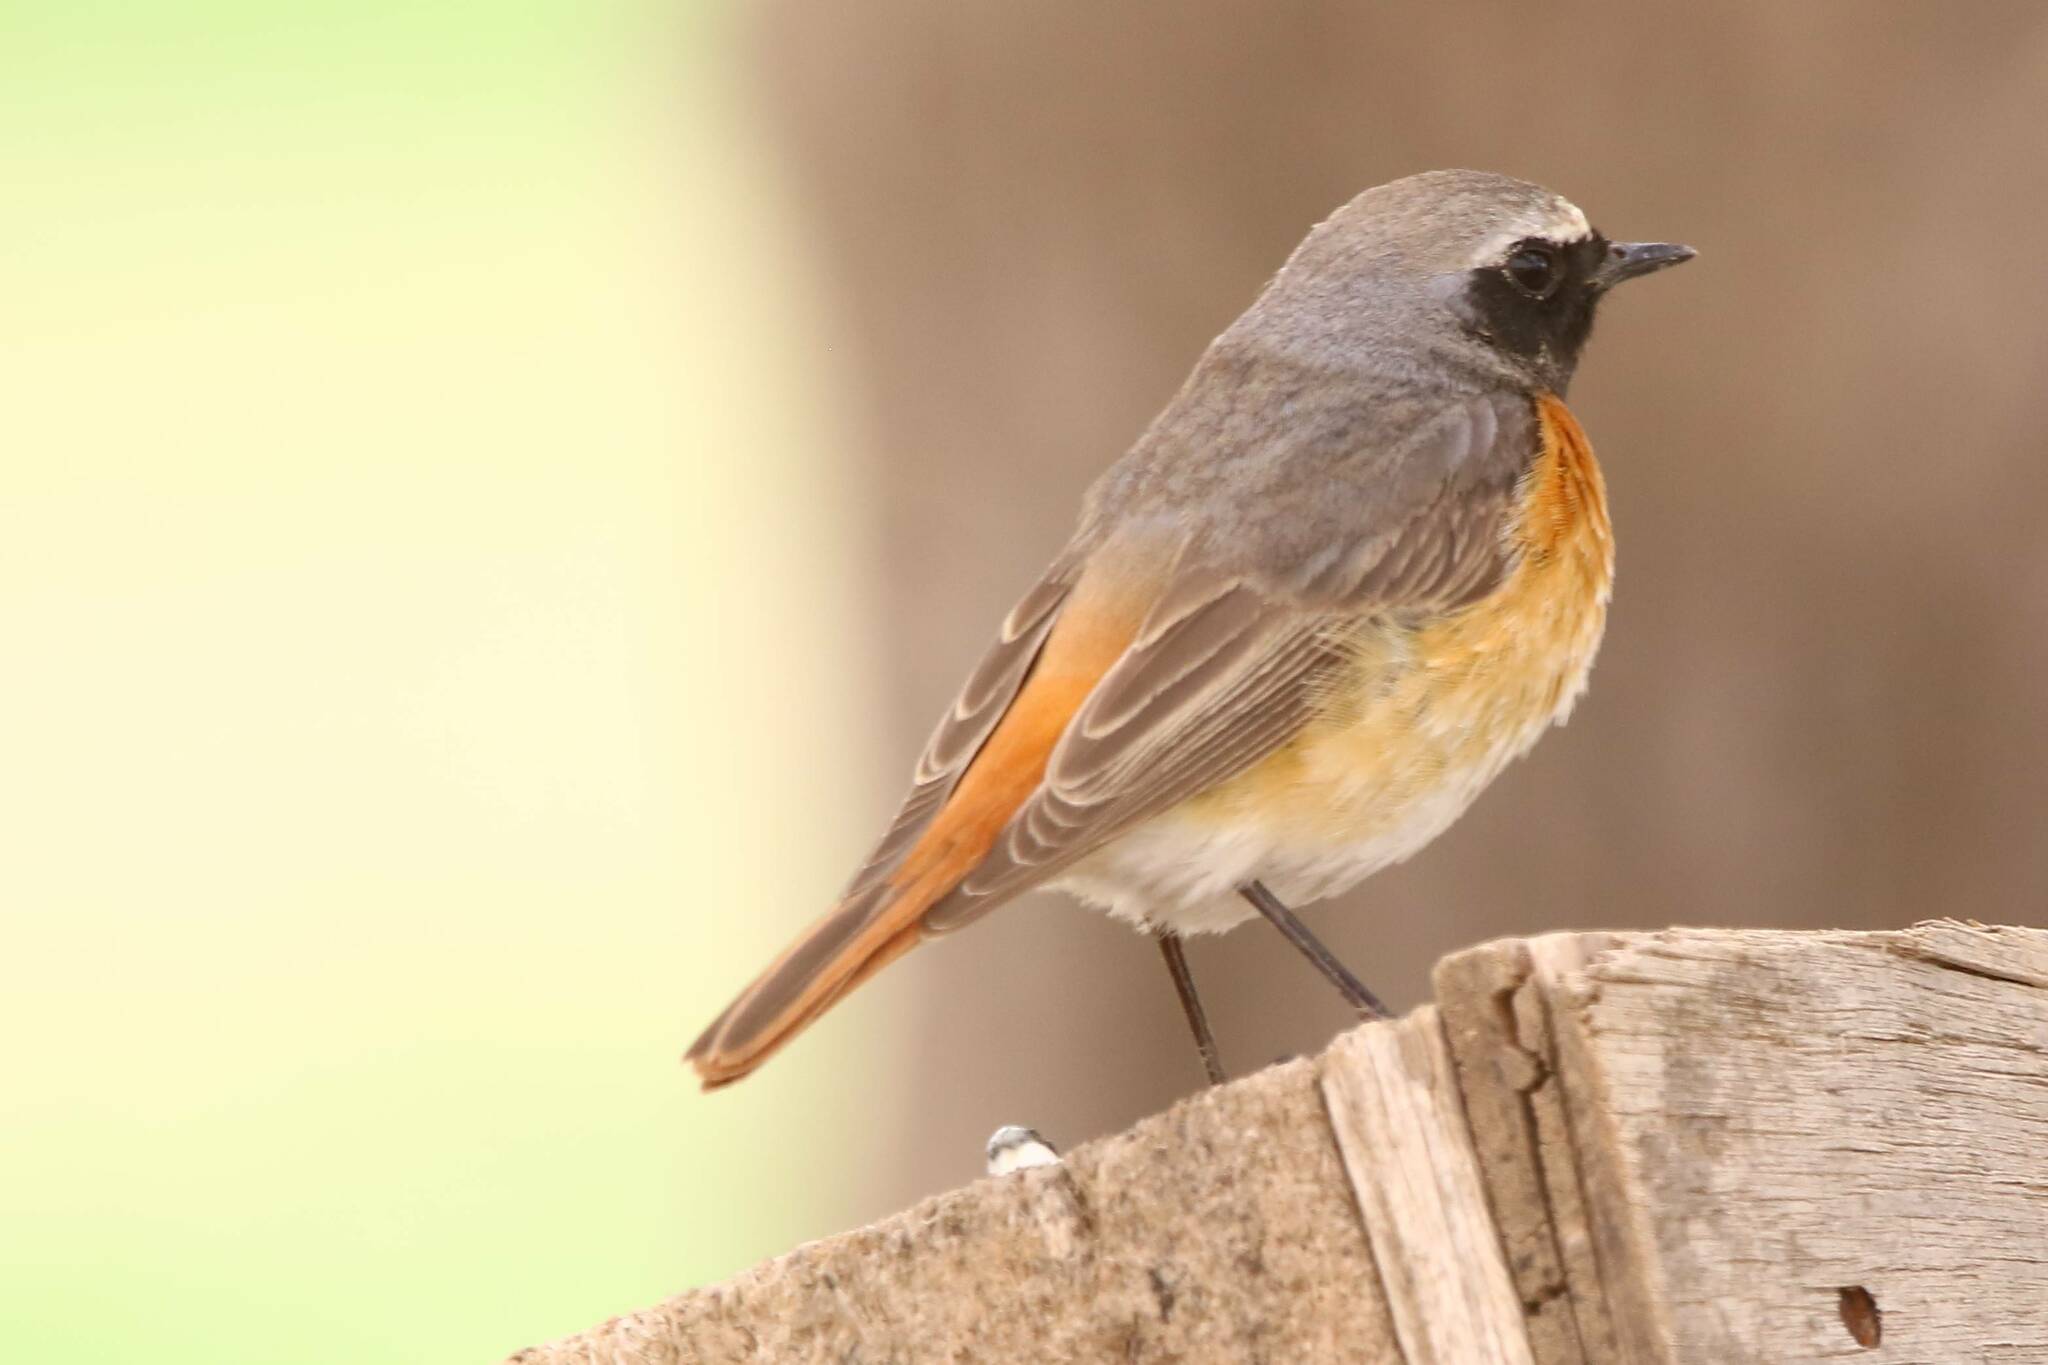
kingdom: Animalia
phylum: Chordata
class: Aves
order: Passeriformes
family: Muscicapidae
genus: Phoenicurus
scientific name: Phoenicurus phoenicurus
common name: Common redstart
